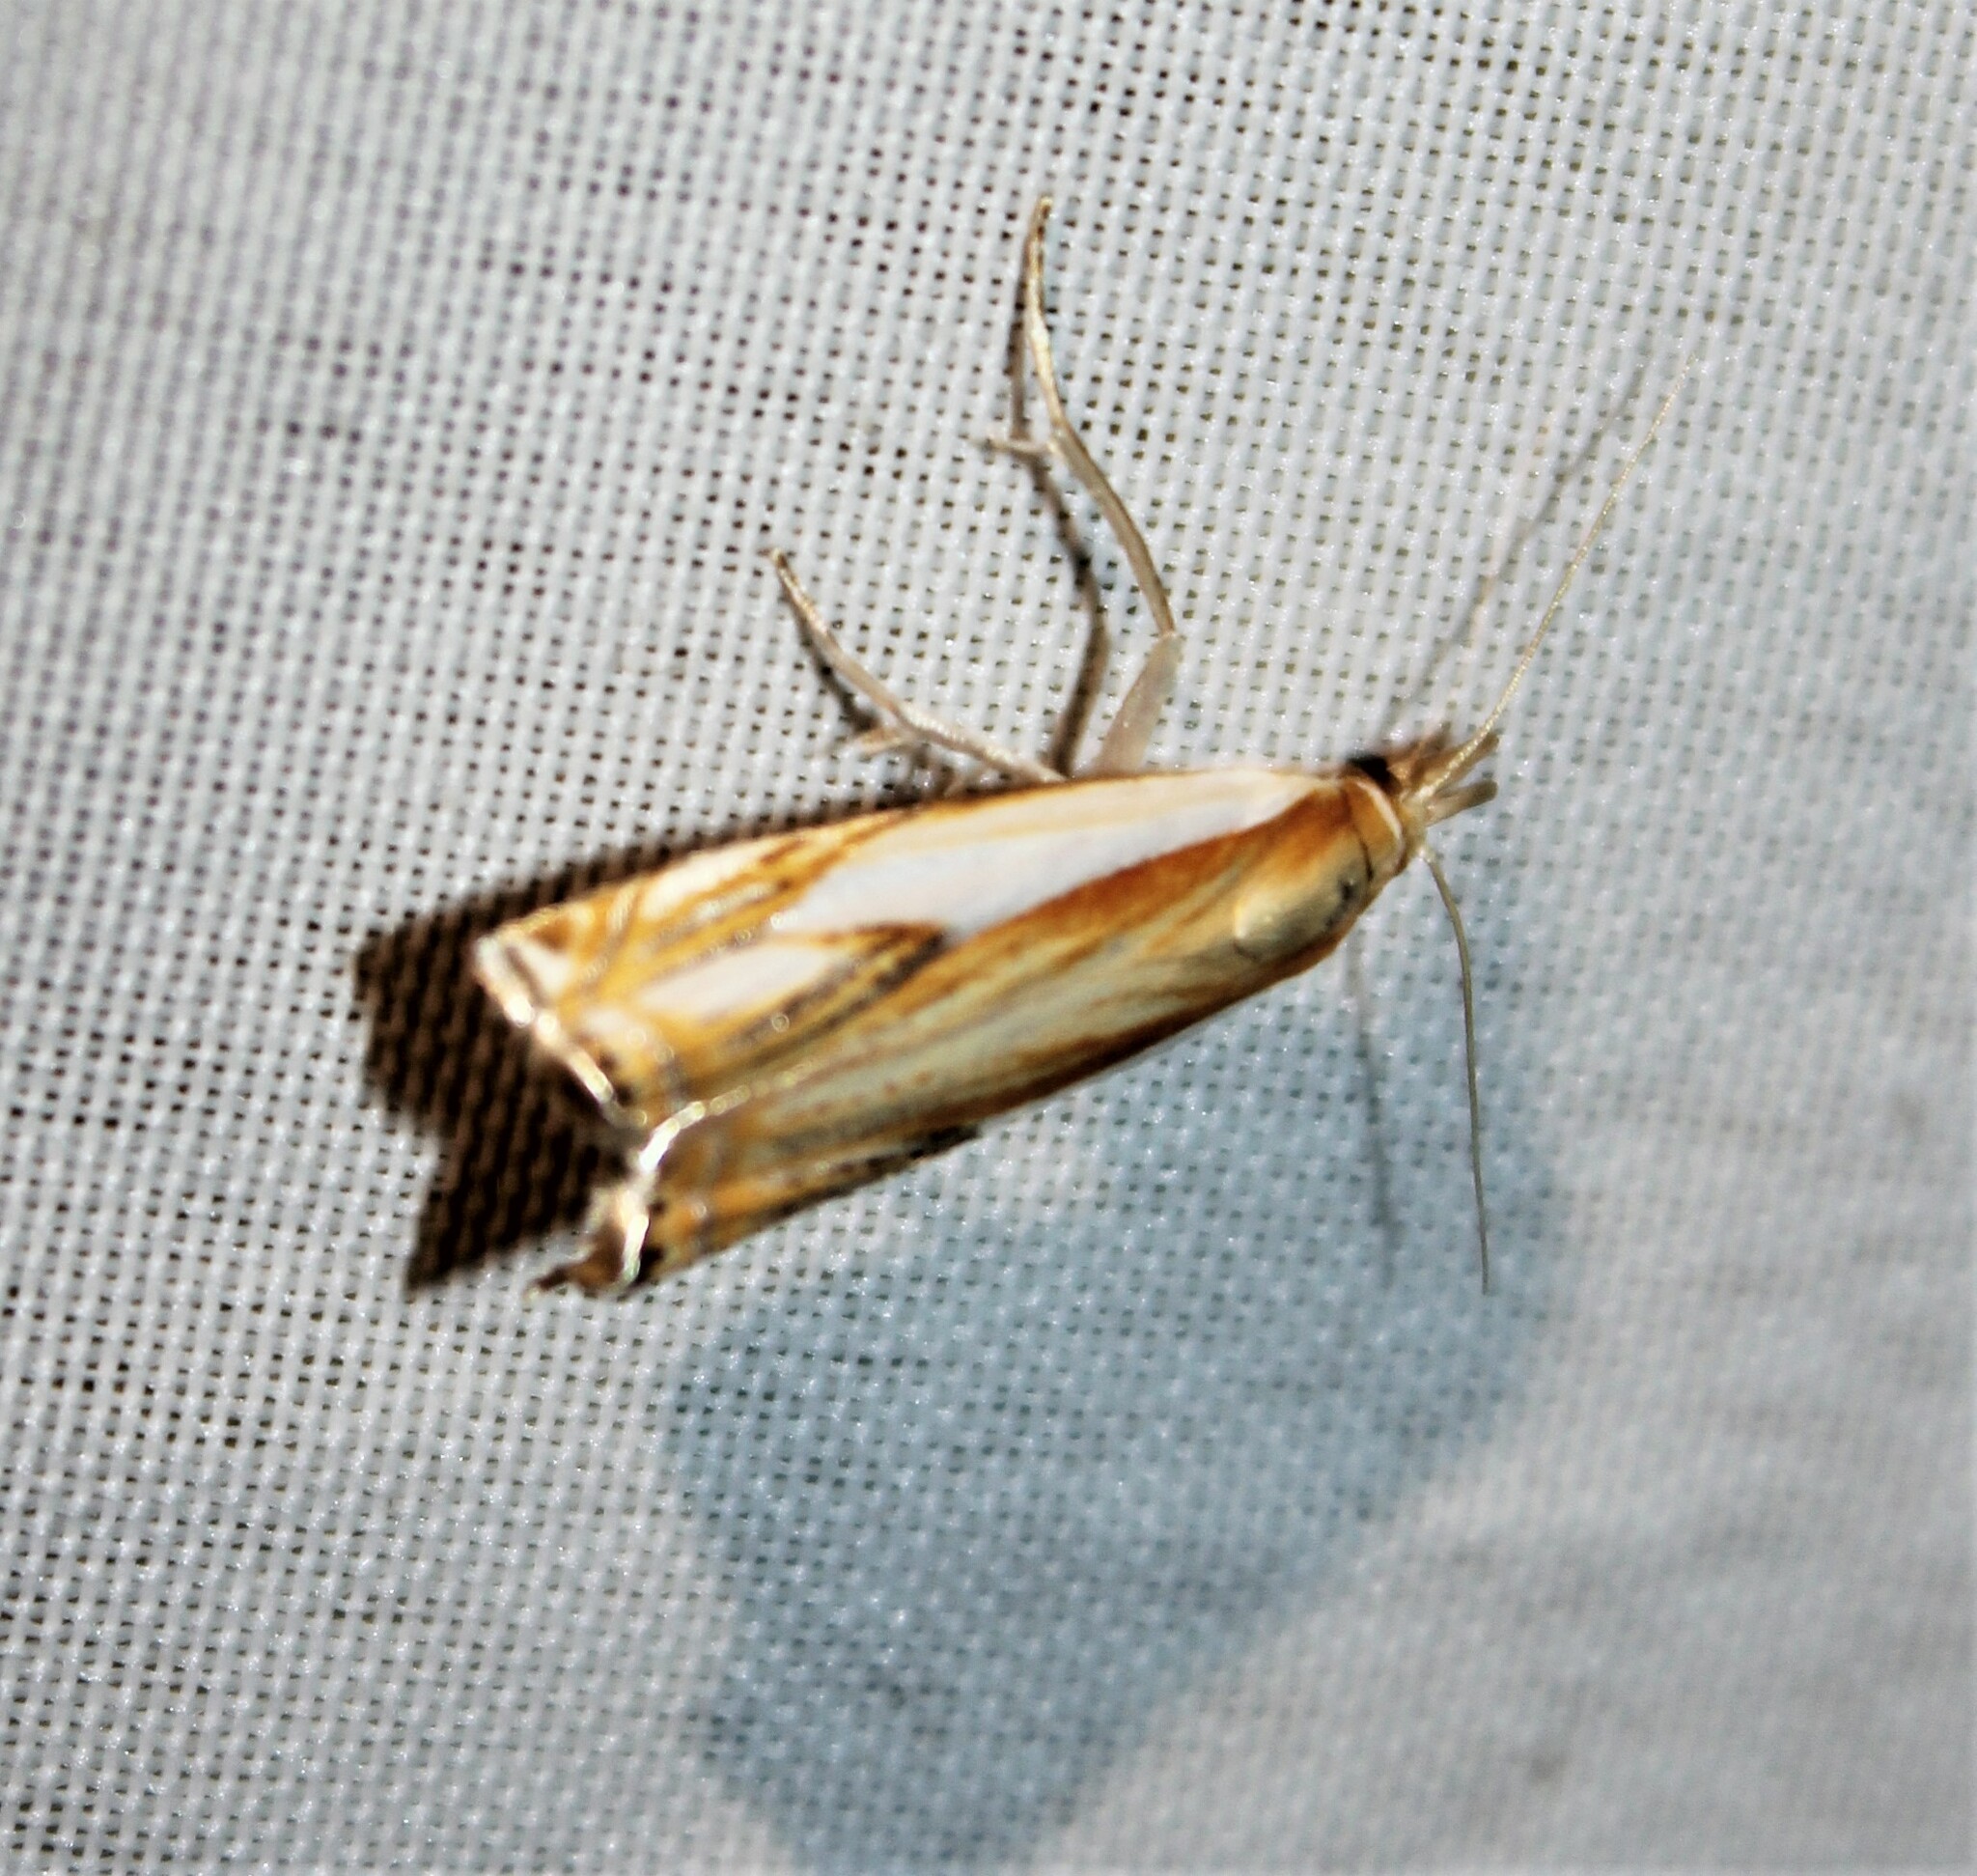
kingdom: Animalia
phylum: Arthropoda
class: Insecta
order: Lepidoptera
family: Crambidae
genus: Crambus
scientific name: Crambus agitatellus
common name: Double-banded grass-veneer
